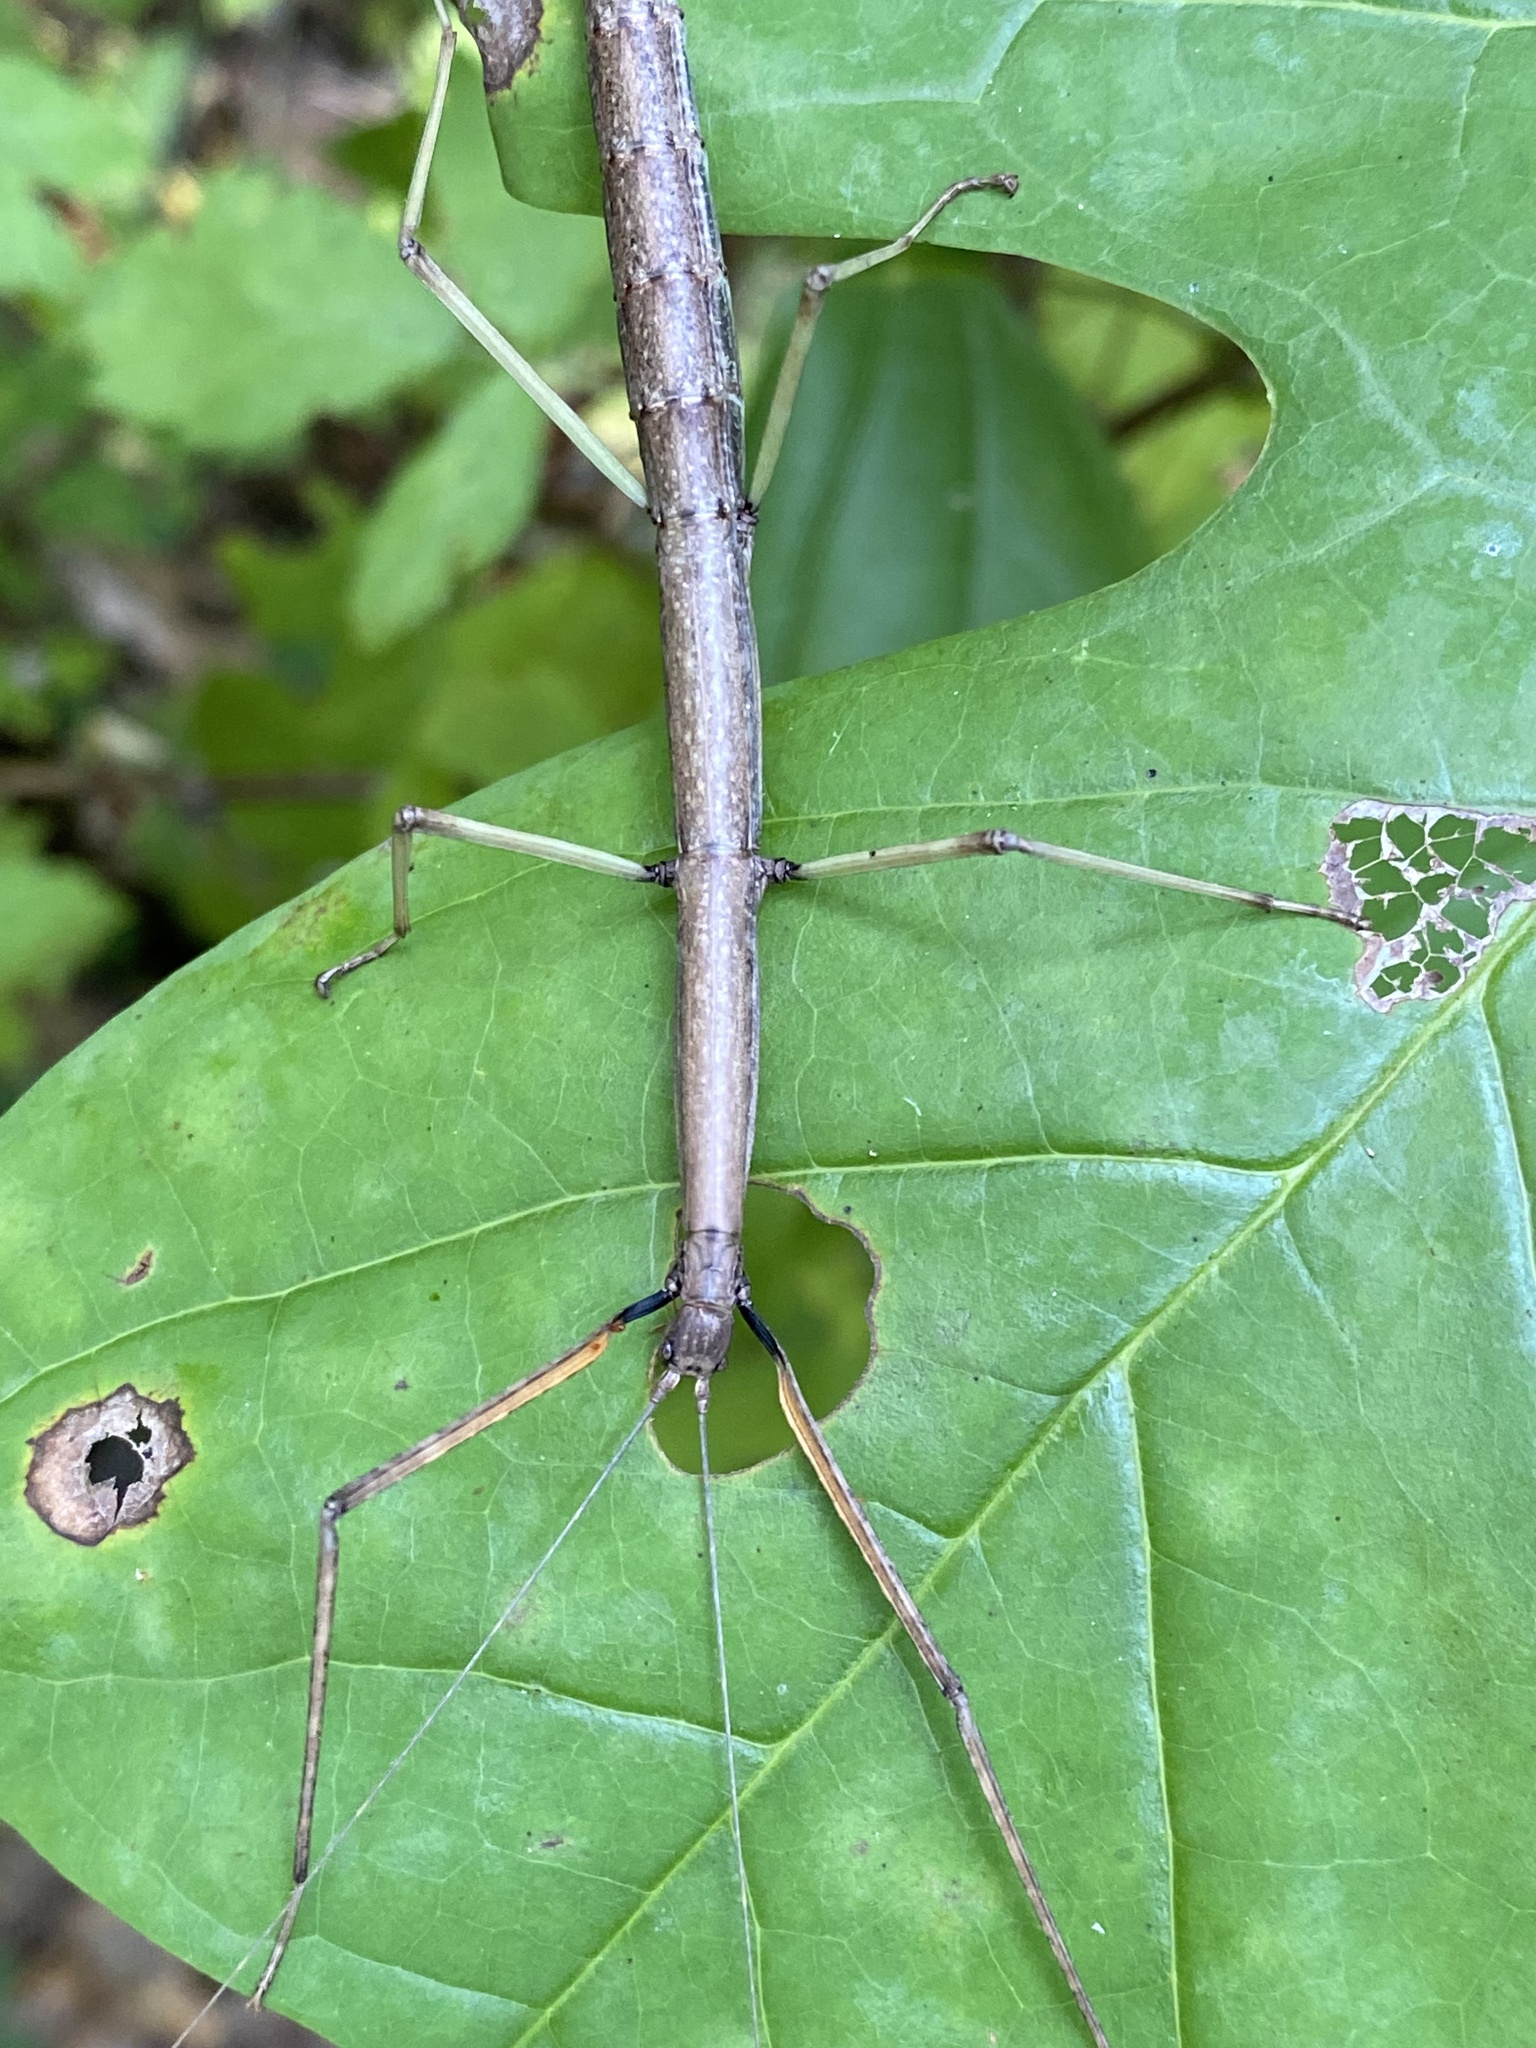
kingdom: Animalia
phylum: Arthropoda
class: Insecta
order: Phasmida
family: Diapheromeridae
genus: Diapheromera
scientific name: Diapheromera femorata
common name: Common american walkingstick
